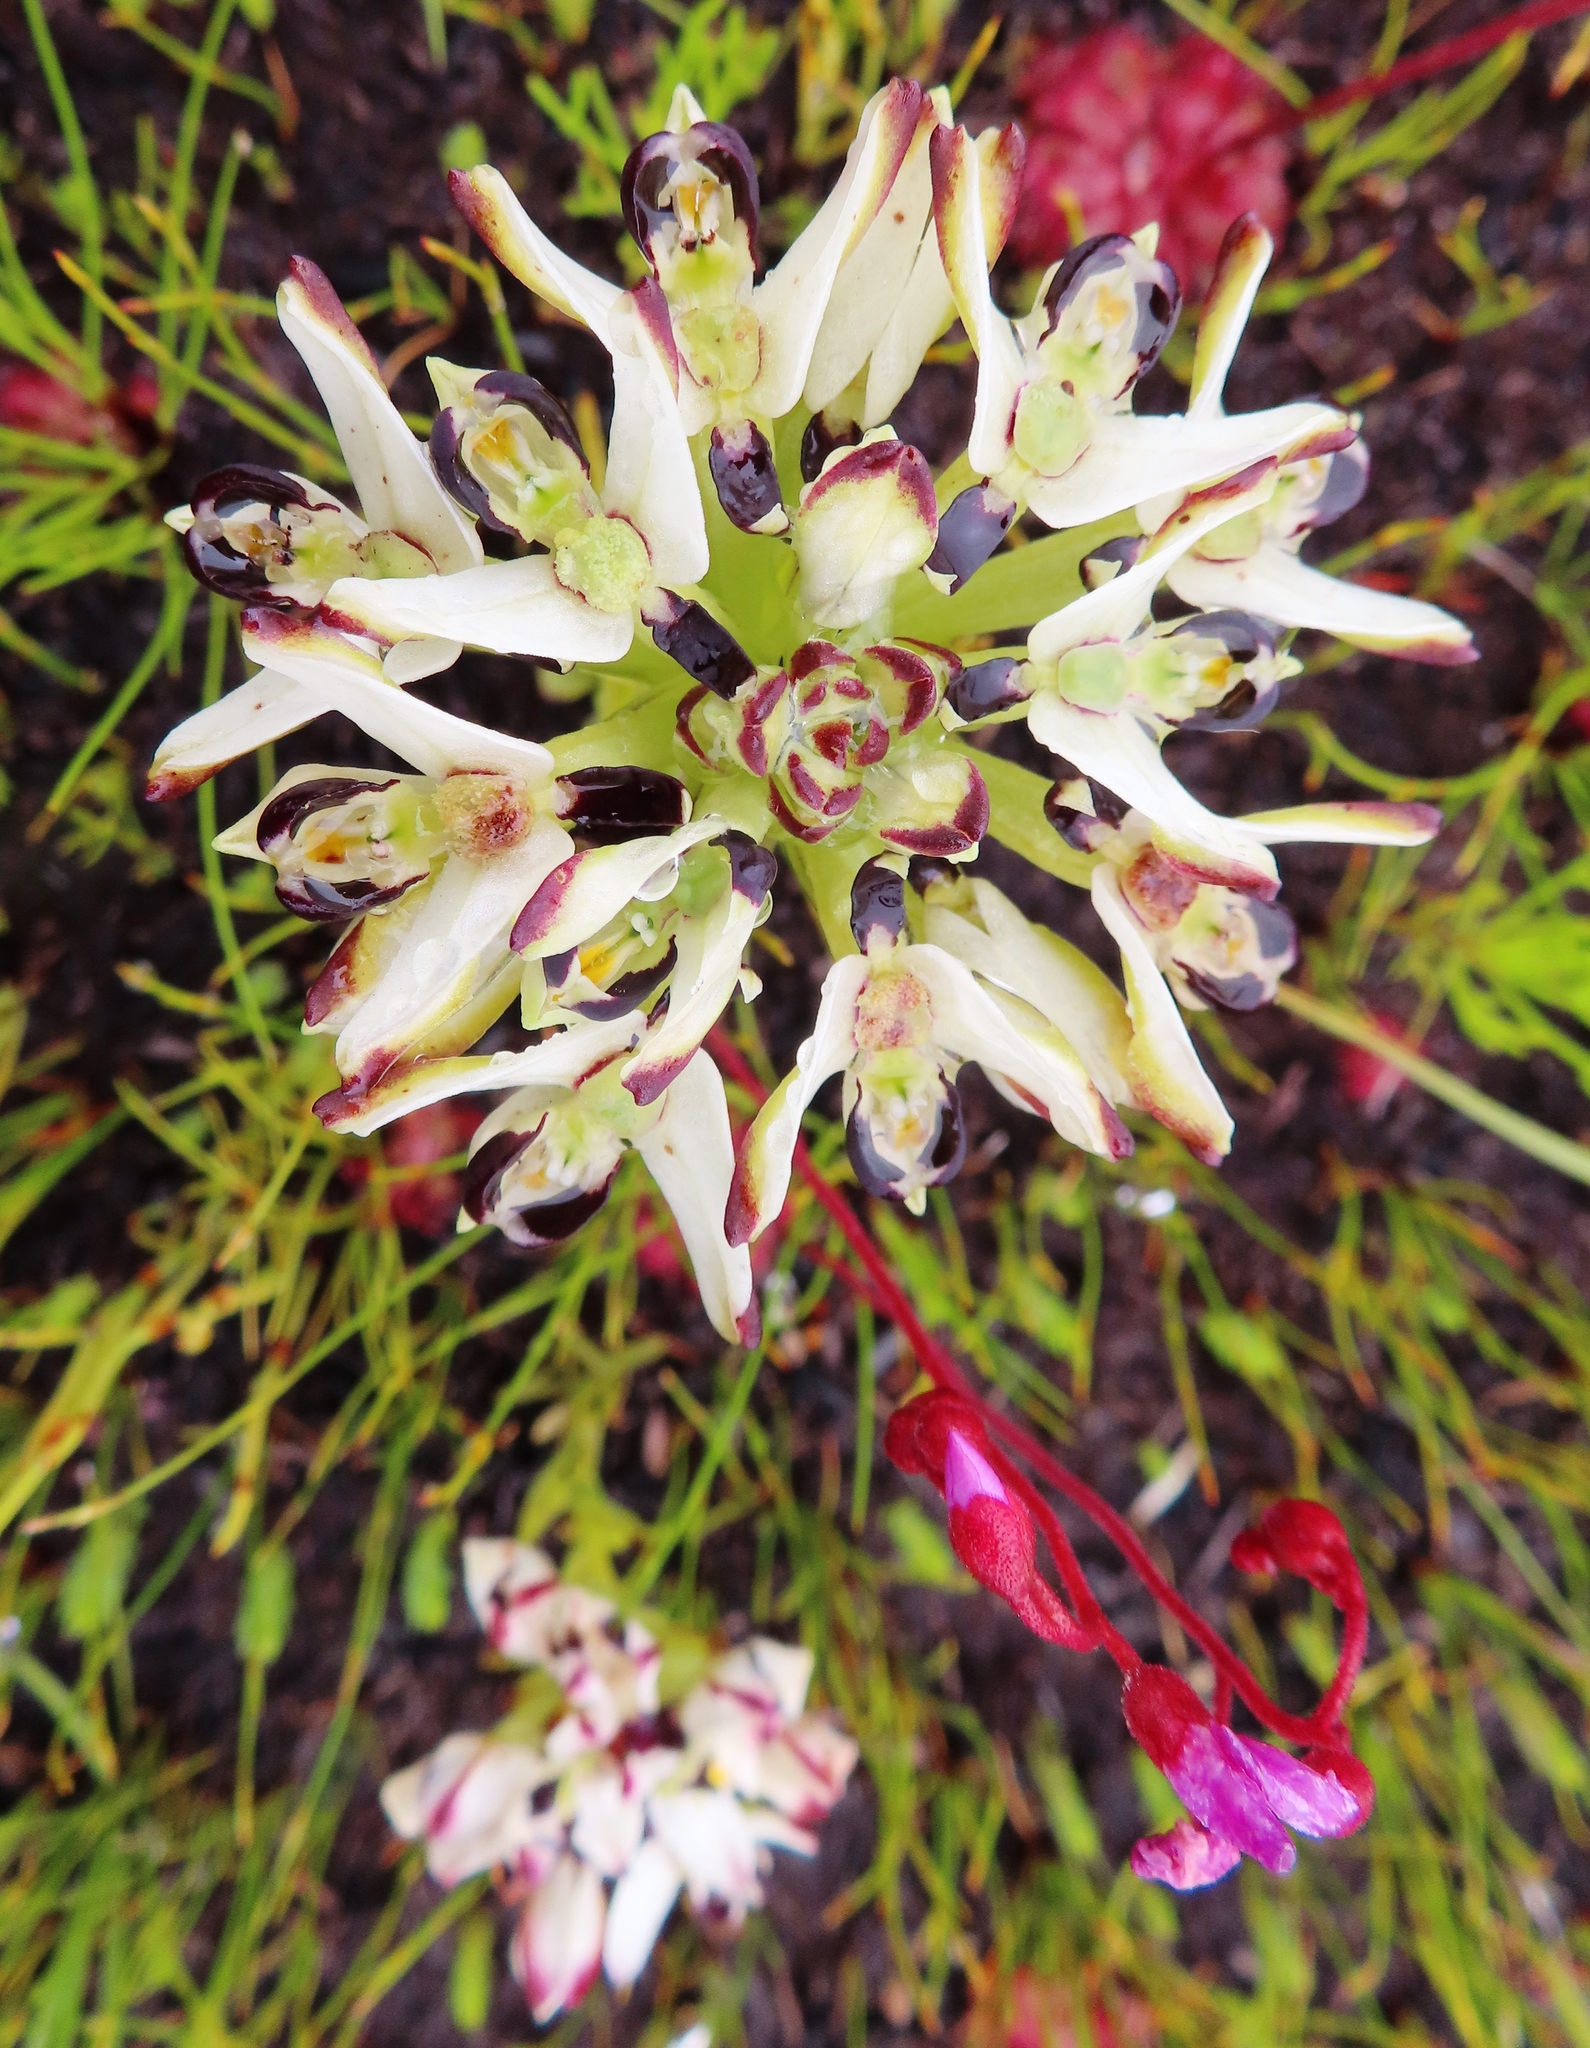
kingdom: Plantae
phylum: Tracheophyta
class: Liliopsida
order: Asparagales
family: Orchidaceae
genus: Disa
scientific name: Disa bivalvata
